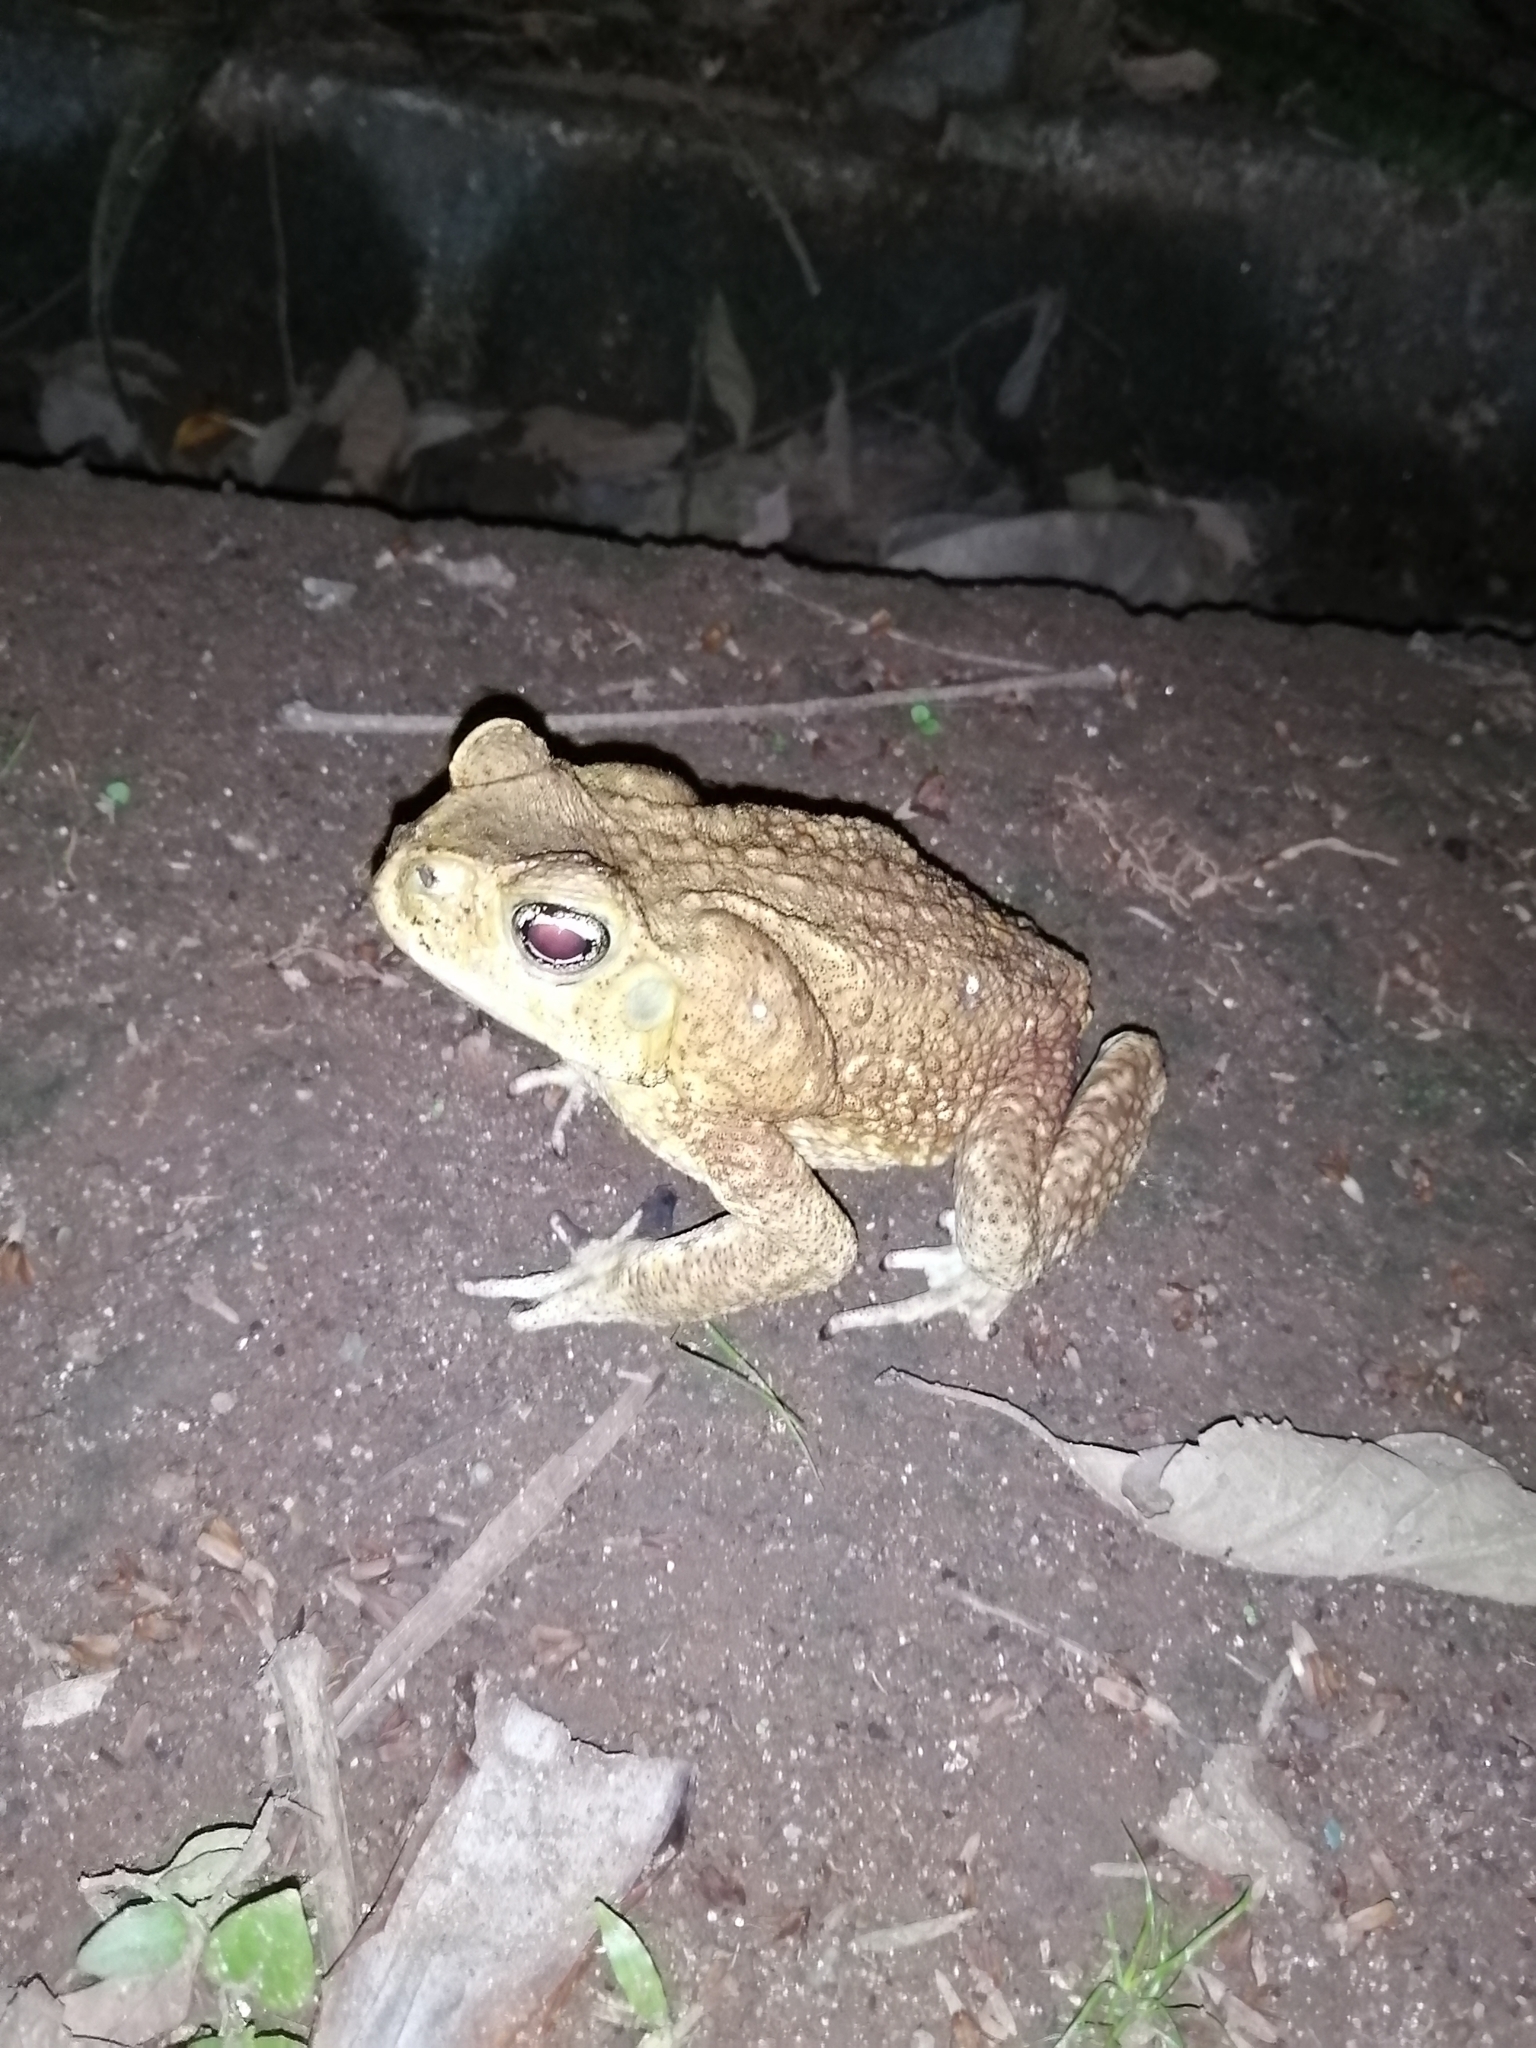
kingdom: Animalia
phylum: Chordata
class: Amphibia
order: Anura
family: Bufonidae
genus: Rhinella
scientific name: Rhinella horribilis
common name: Mesoamerican cane toad
